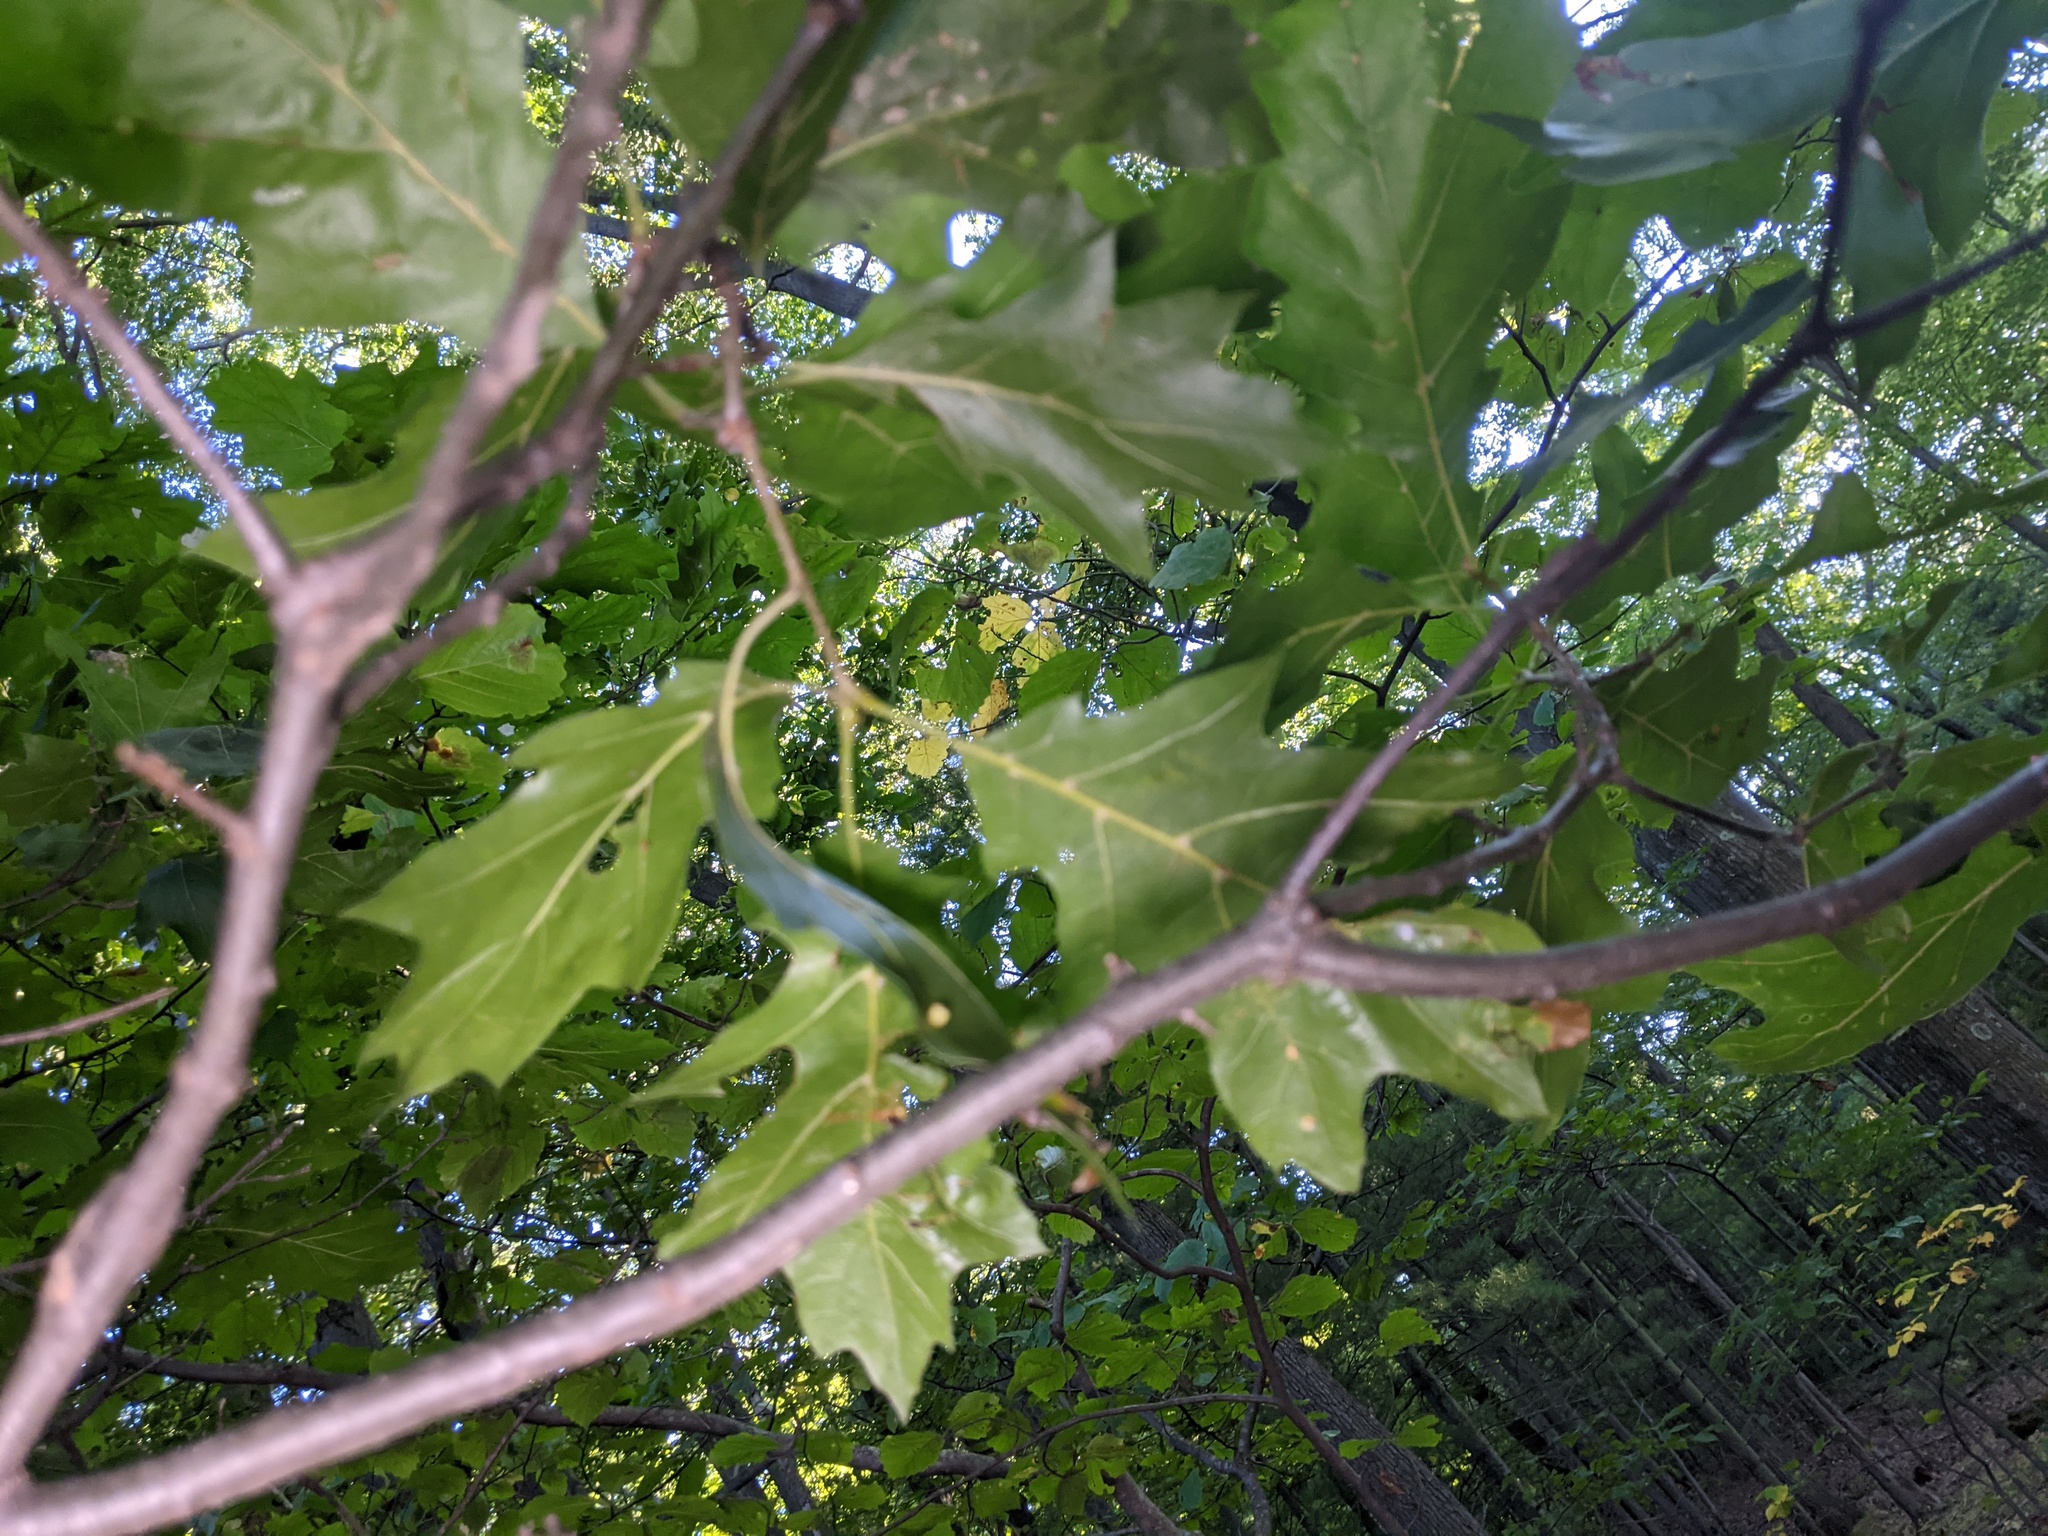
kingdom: Animalia
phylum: Arthropoda
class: Insecta
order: Hymenoptera
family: Cynipidae
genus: Kokkocynips
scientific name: Kokkocynips rileyi
